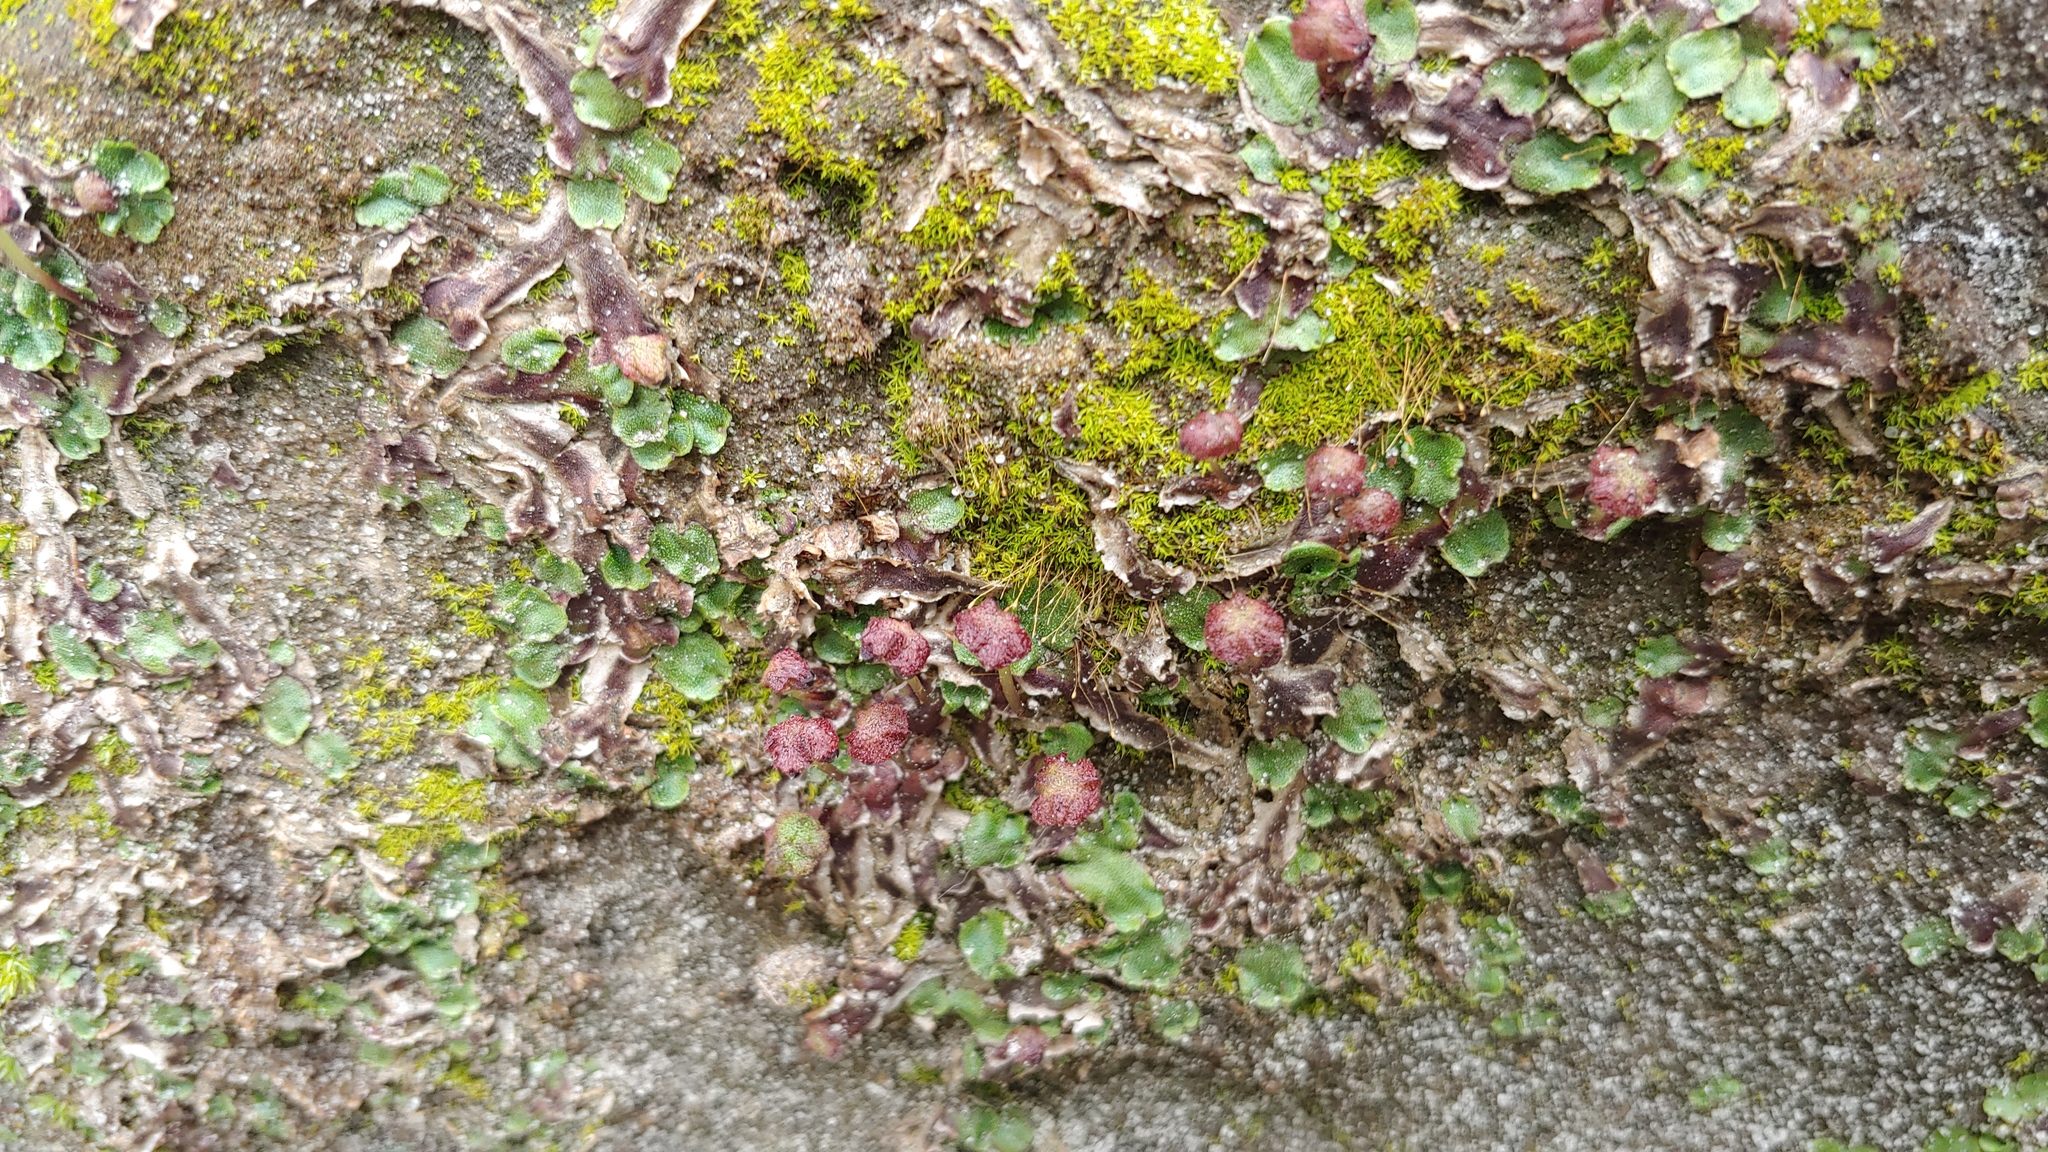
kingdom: Plantae
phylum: Marchantiophyta
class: Marchantiopsida
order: Marchantiales
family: Aytoniaceae
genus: Reboulia
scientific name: Reboulia hemisphaerica
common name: Purple-margined liverwort
